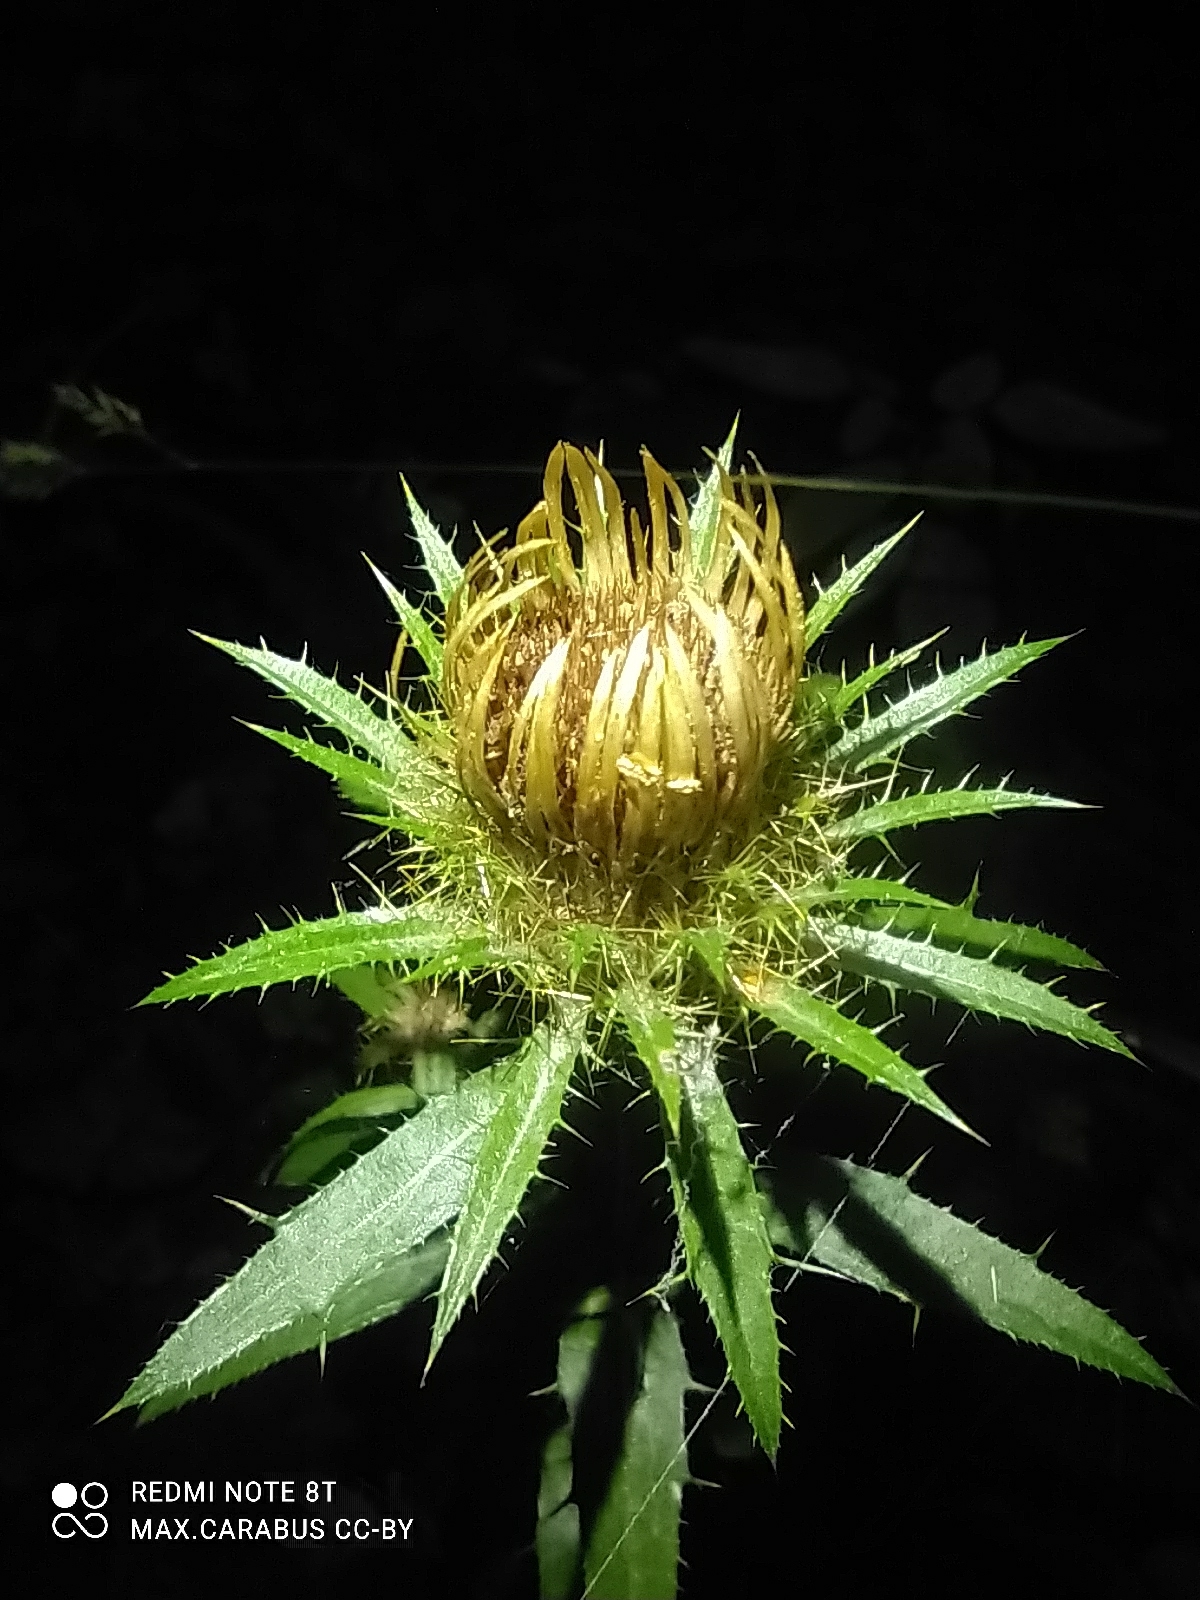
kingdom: Plantae
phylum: Tracheophyta
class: Magnoliopsida
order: Asterales
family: Asteraceae
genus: Carlina
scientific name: Carlina biebersteinii
